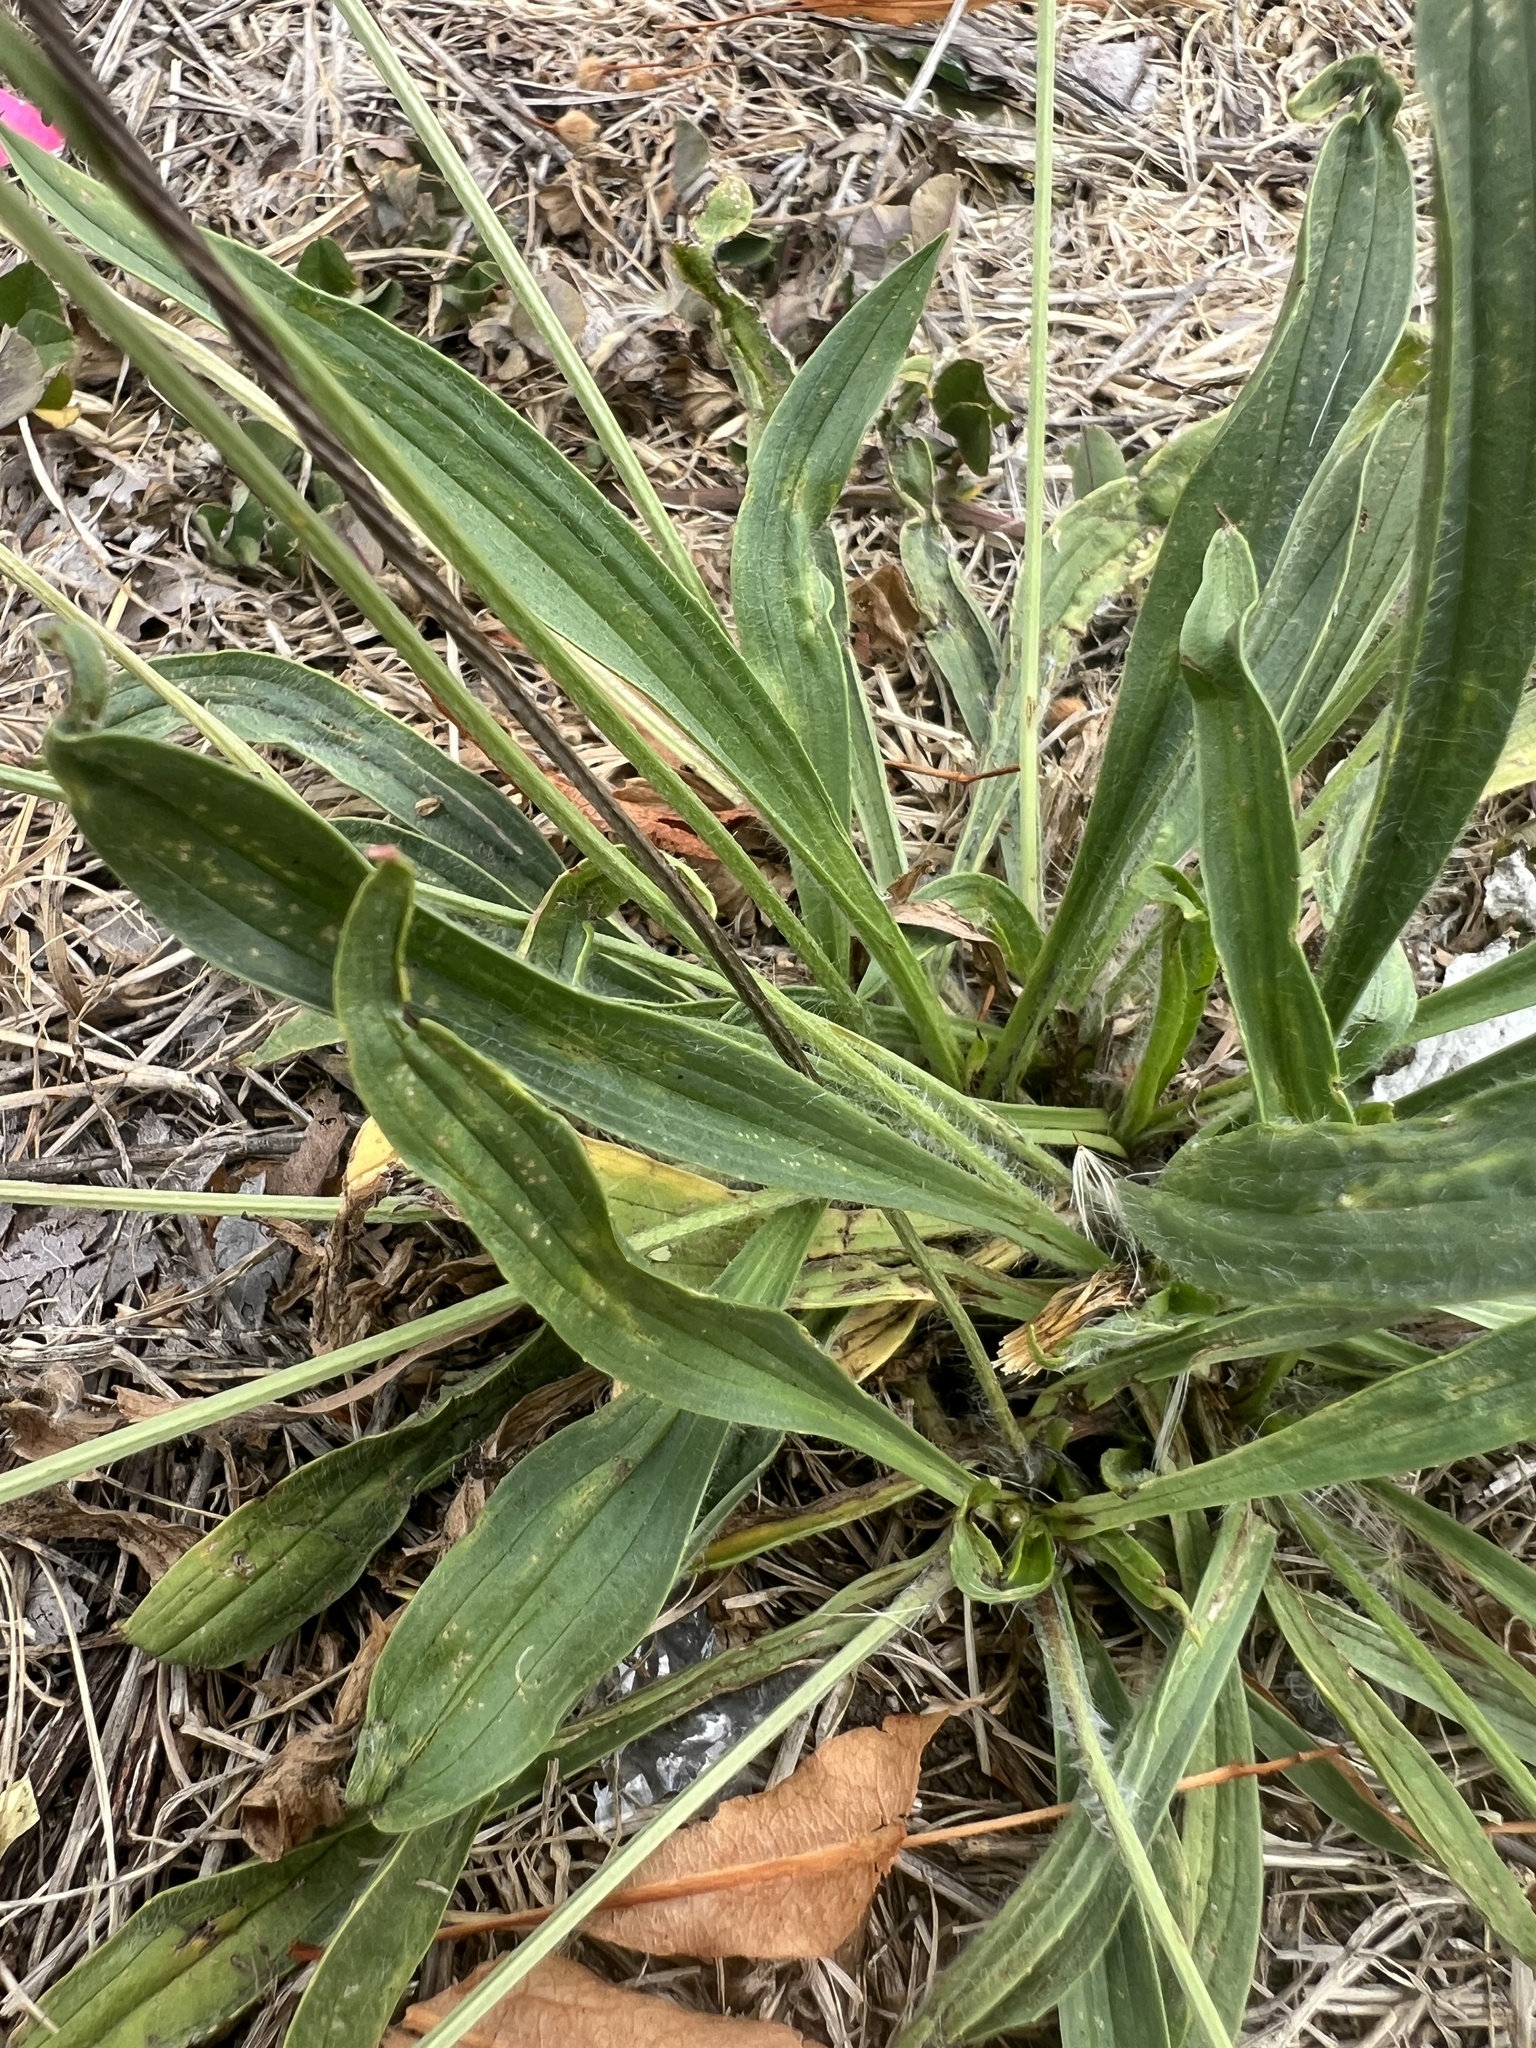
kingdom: Plantae
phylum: Tracheophyta
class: Magnoliopsida
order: Lamiales
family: Plantaginaceae
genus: Plantago
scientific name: Plantago lanceolata
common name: Ribwort plantain
